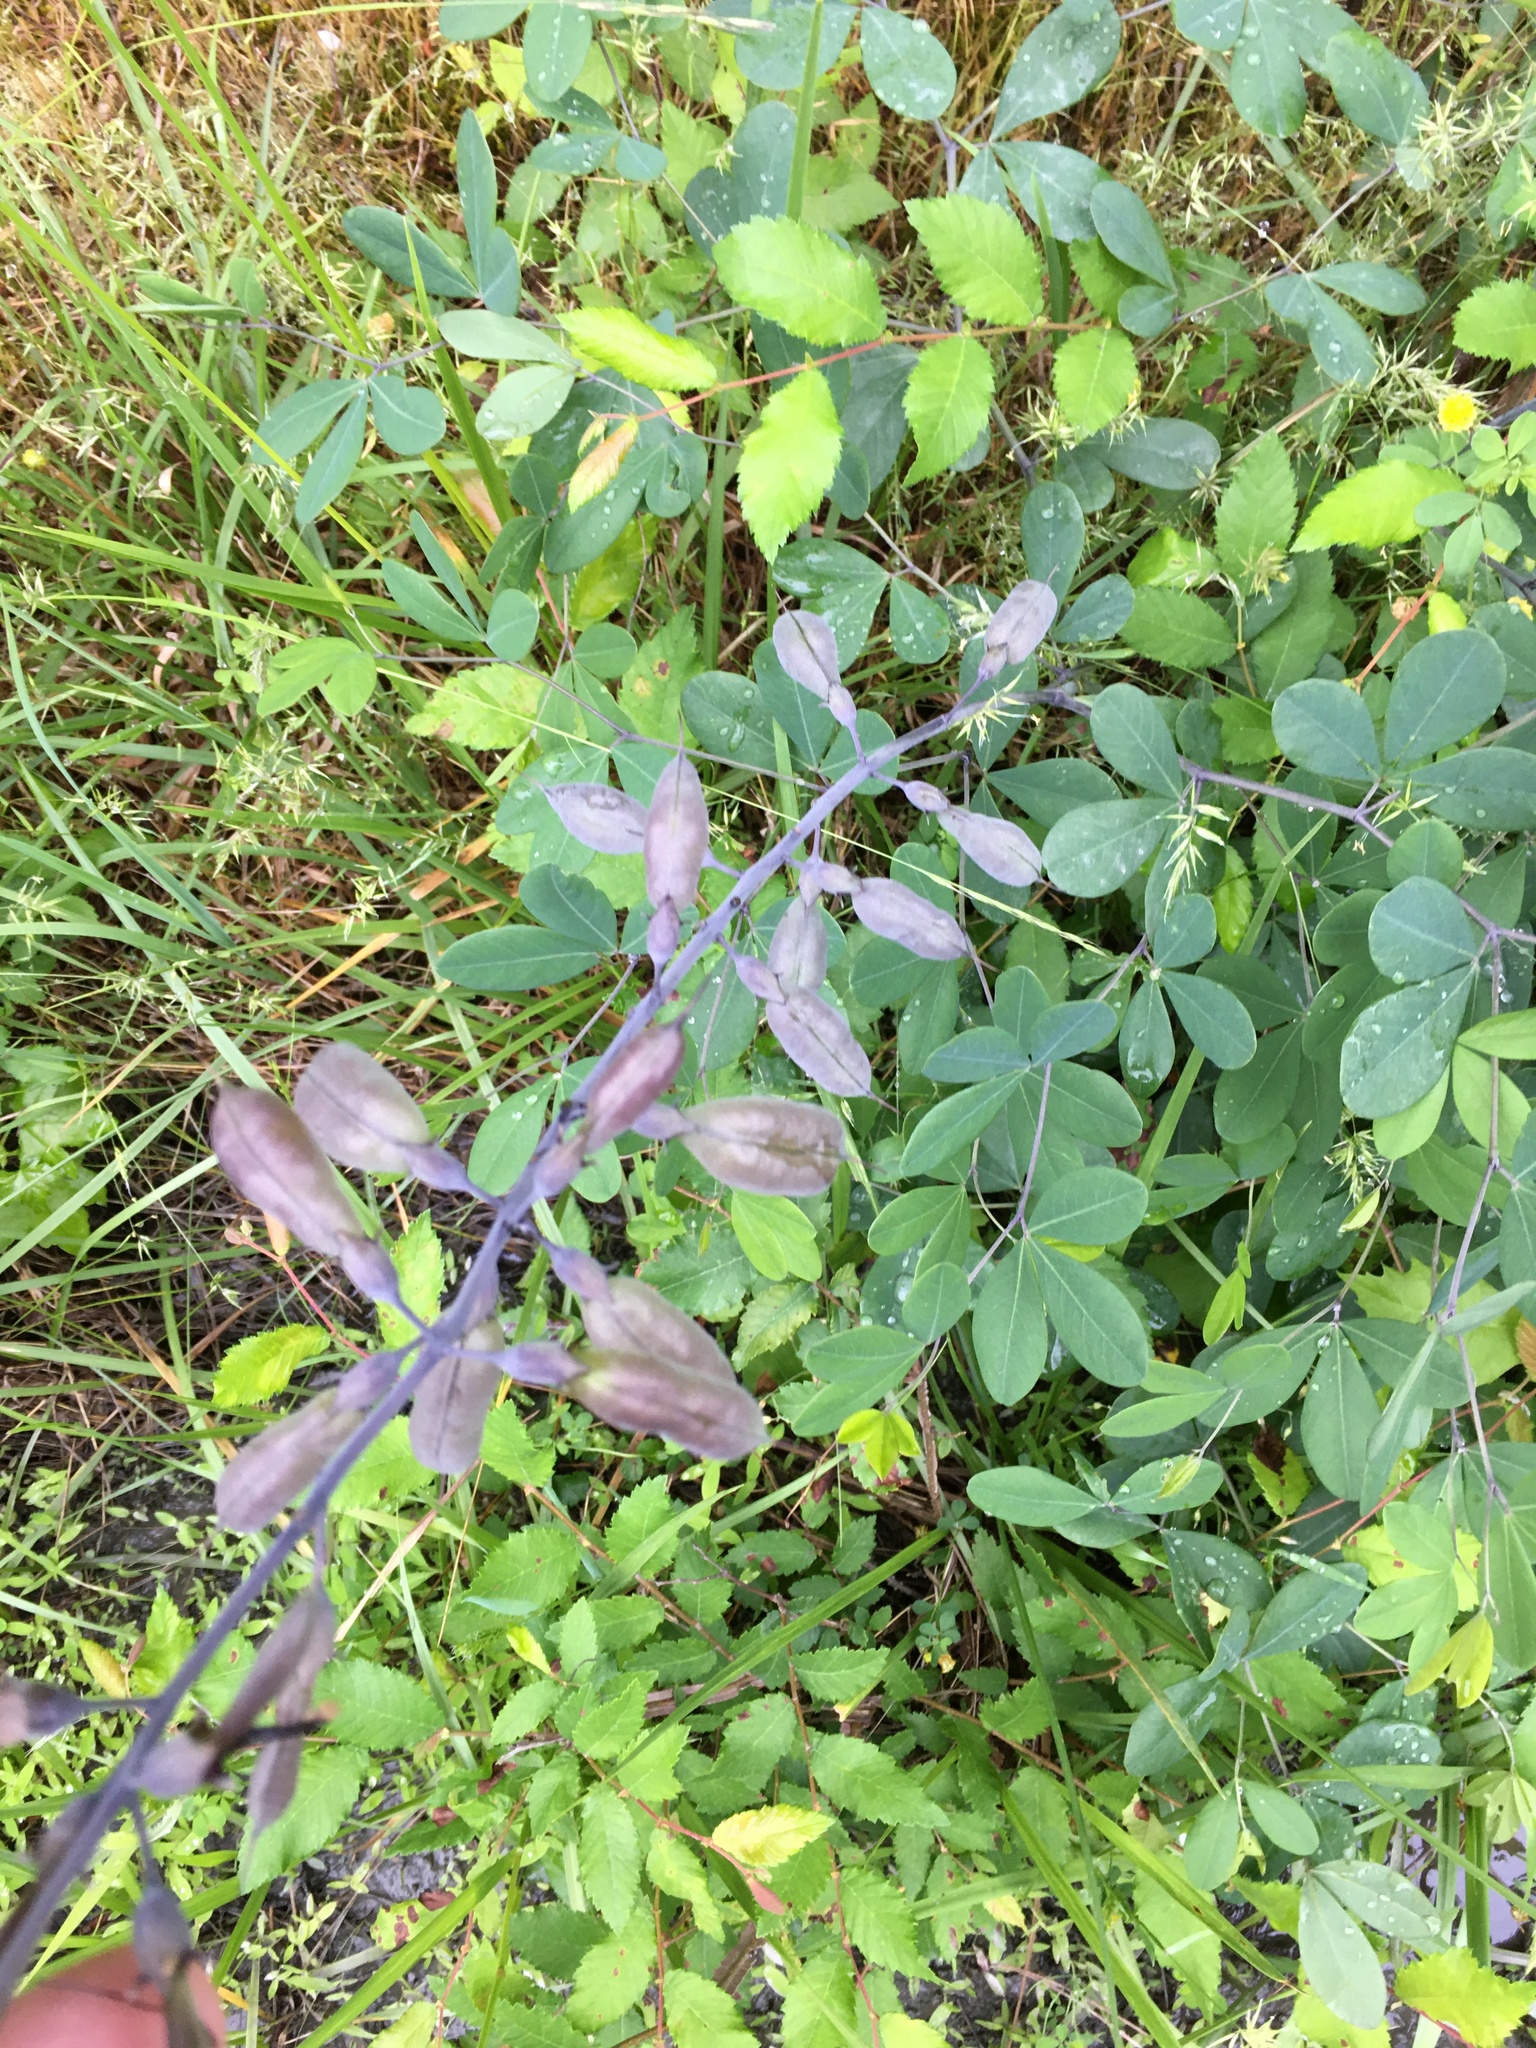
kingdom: Plantae
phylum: Tracheophyta
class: Magnoliopsida
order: Fabales
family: Fabaceae
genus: Baptisia
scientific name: Baptisia alba
